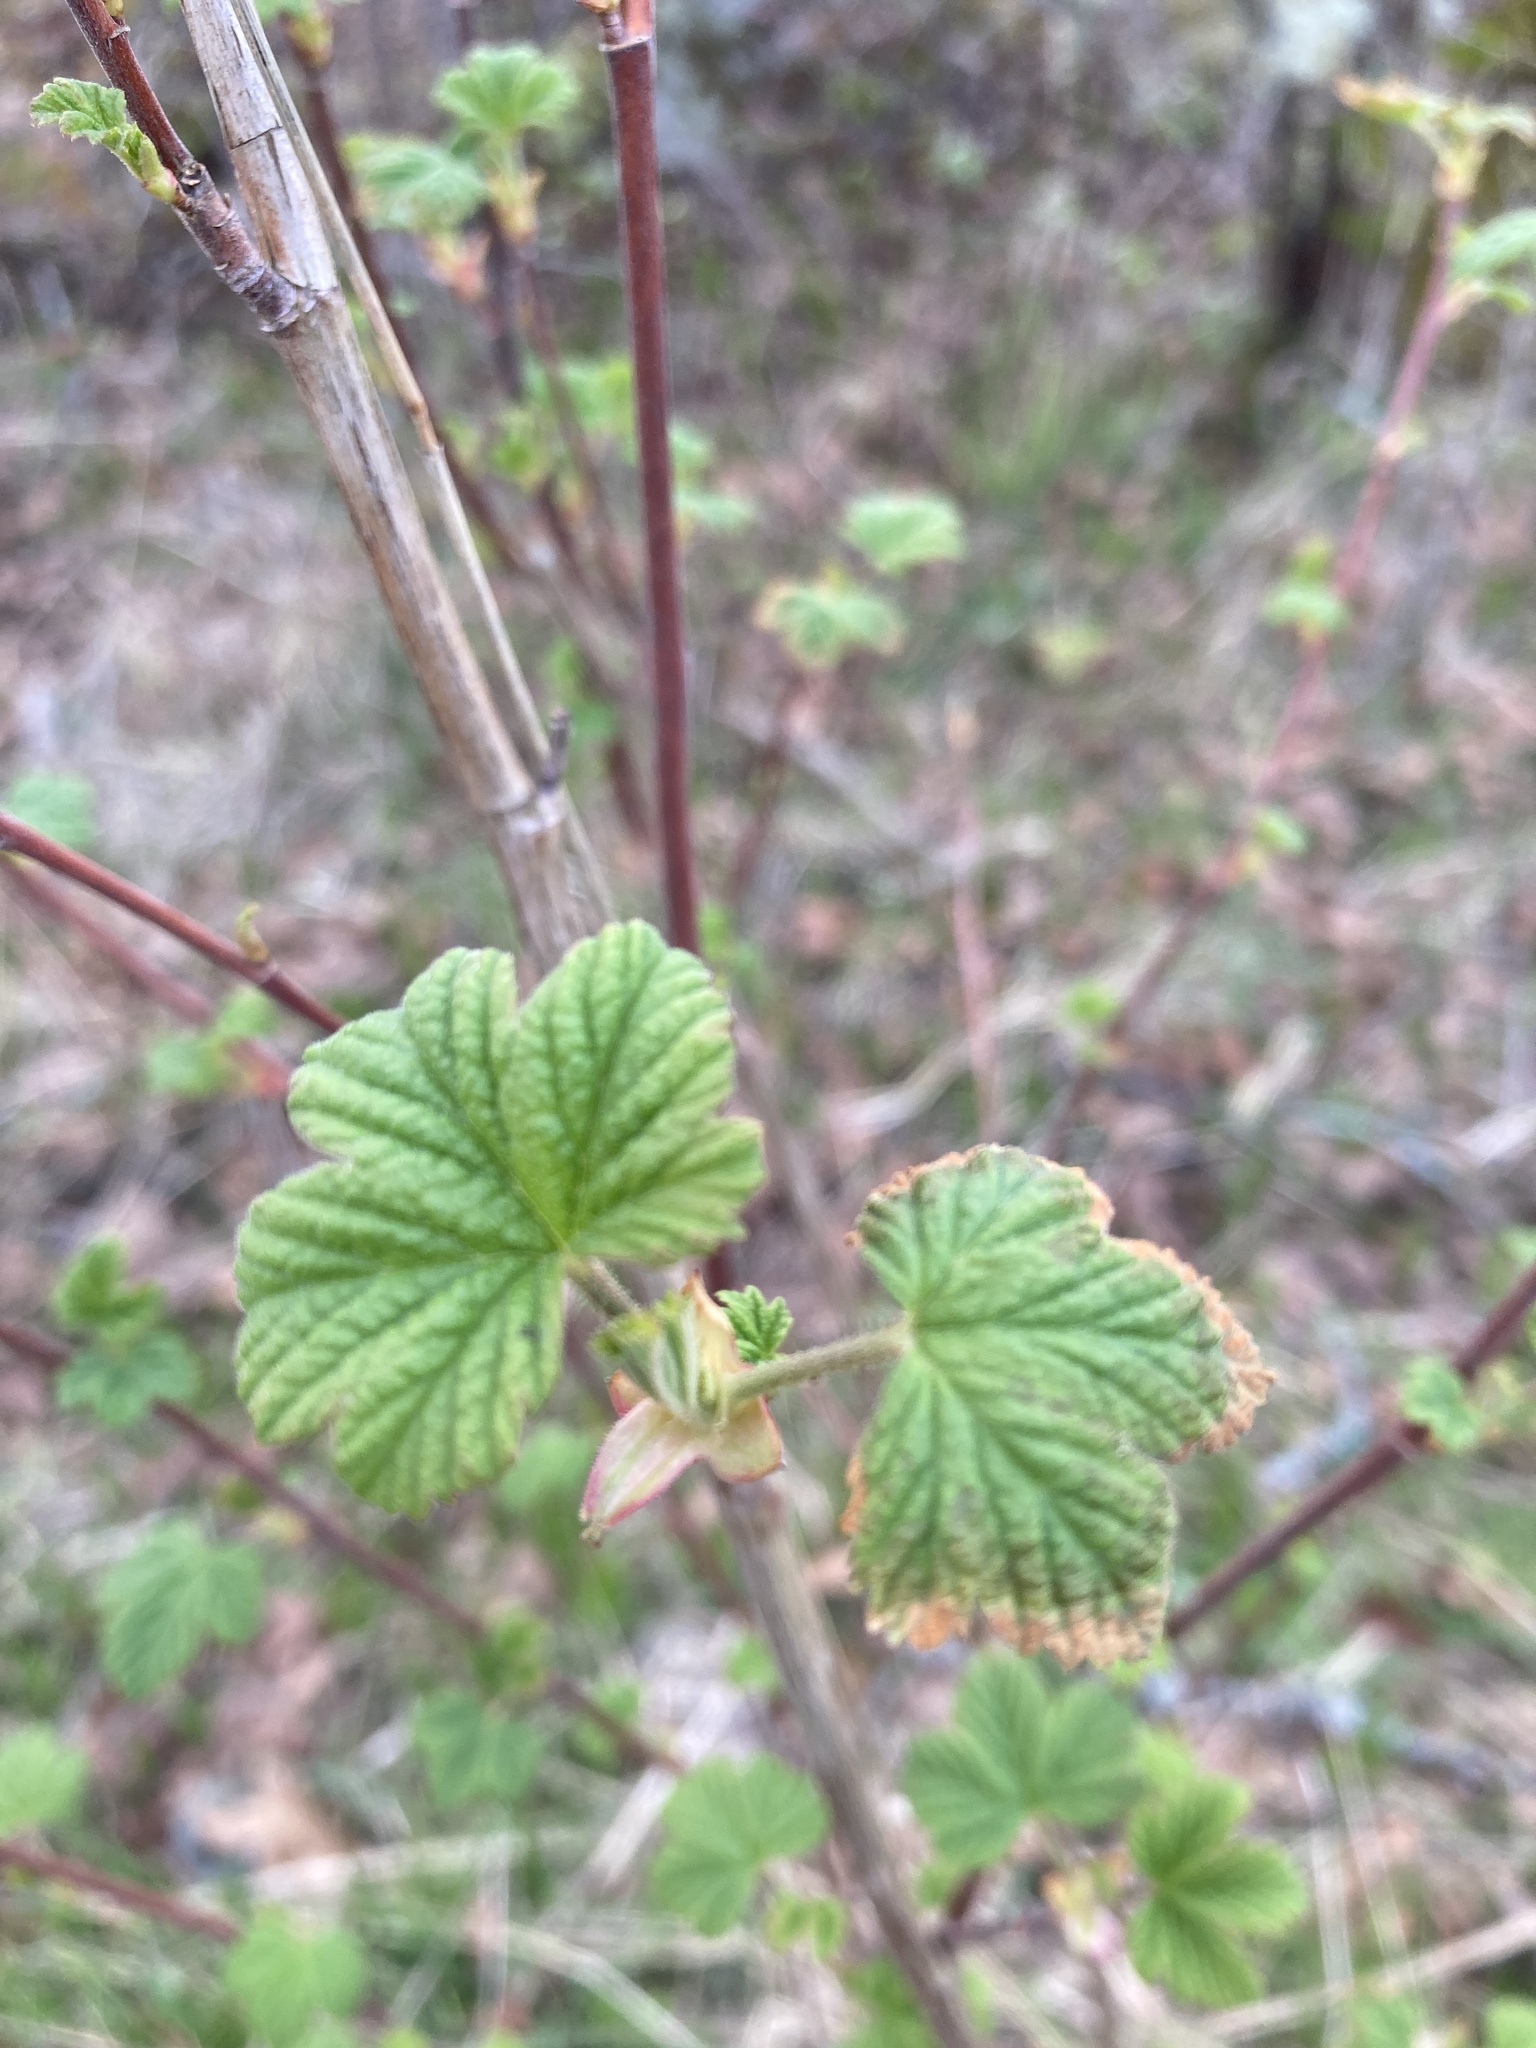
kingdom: Plantae
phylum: Tracheophyta
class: Magnoliopsida
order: Saxifragales
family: Grossulariaceae
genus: Ribes
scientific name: Ribes sanguineum
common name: Flowering currant
